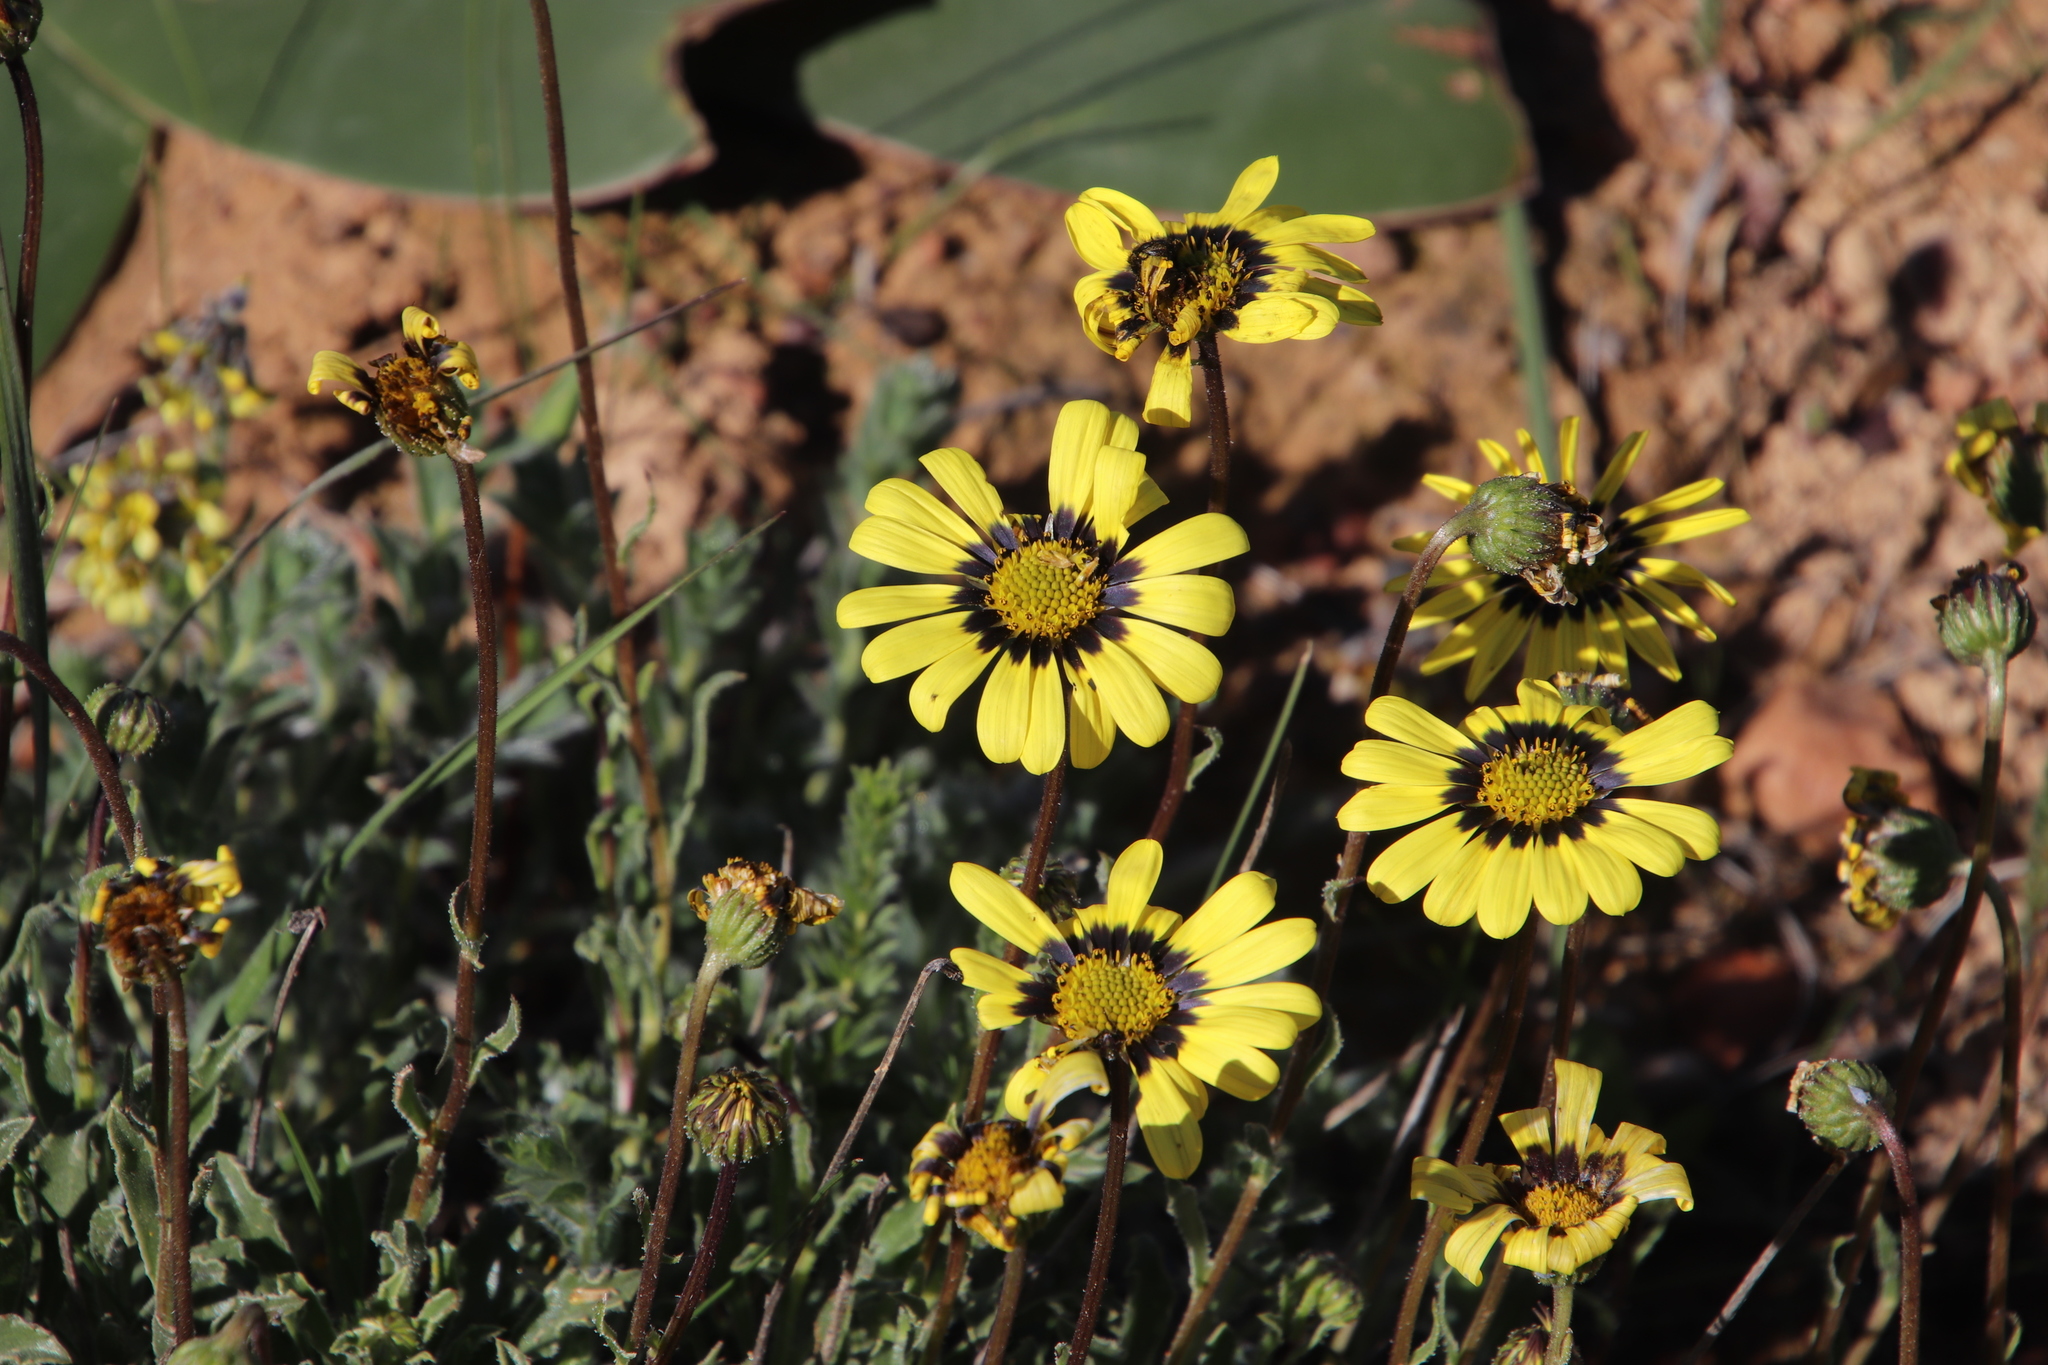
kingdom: Plantae
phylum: Tracheophyta
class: Magnoliopsida
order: Asterales
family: Asteraceae
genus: Osteospermum
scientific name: Osteospermum scariosum
